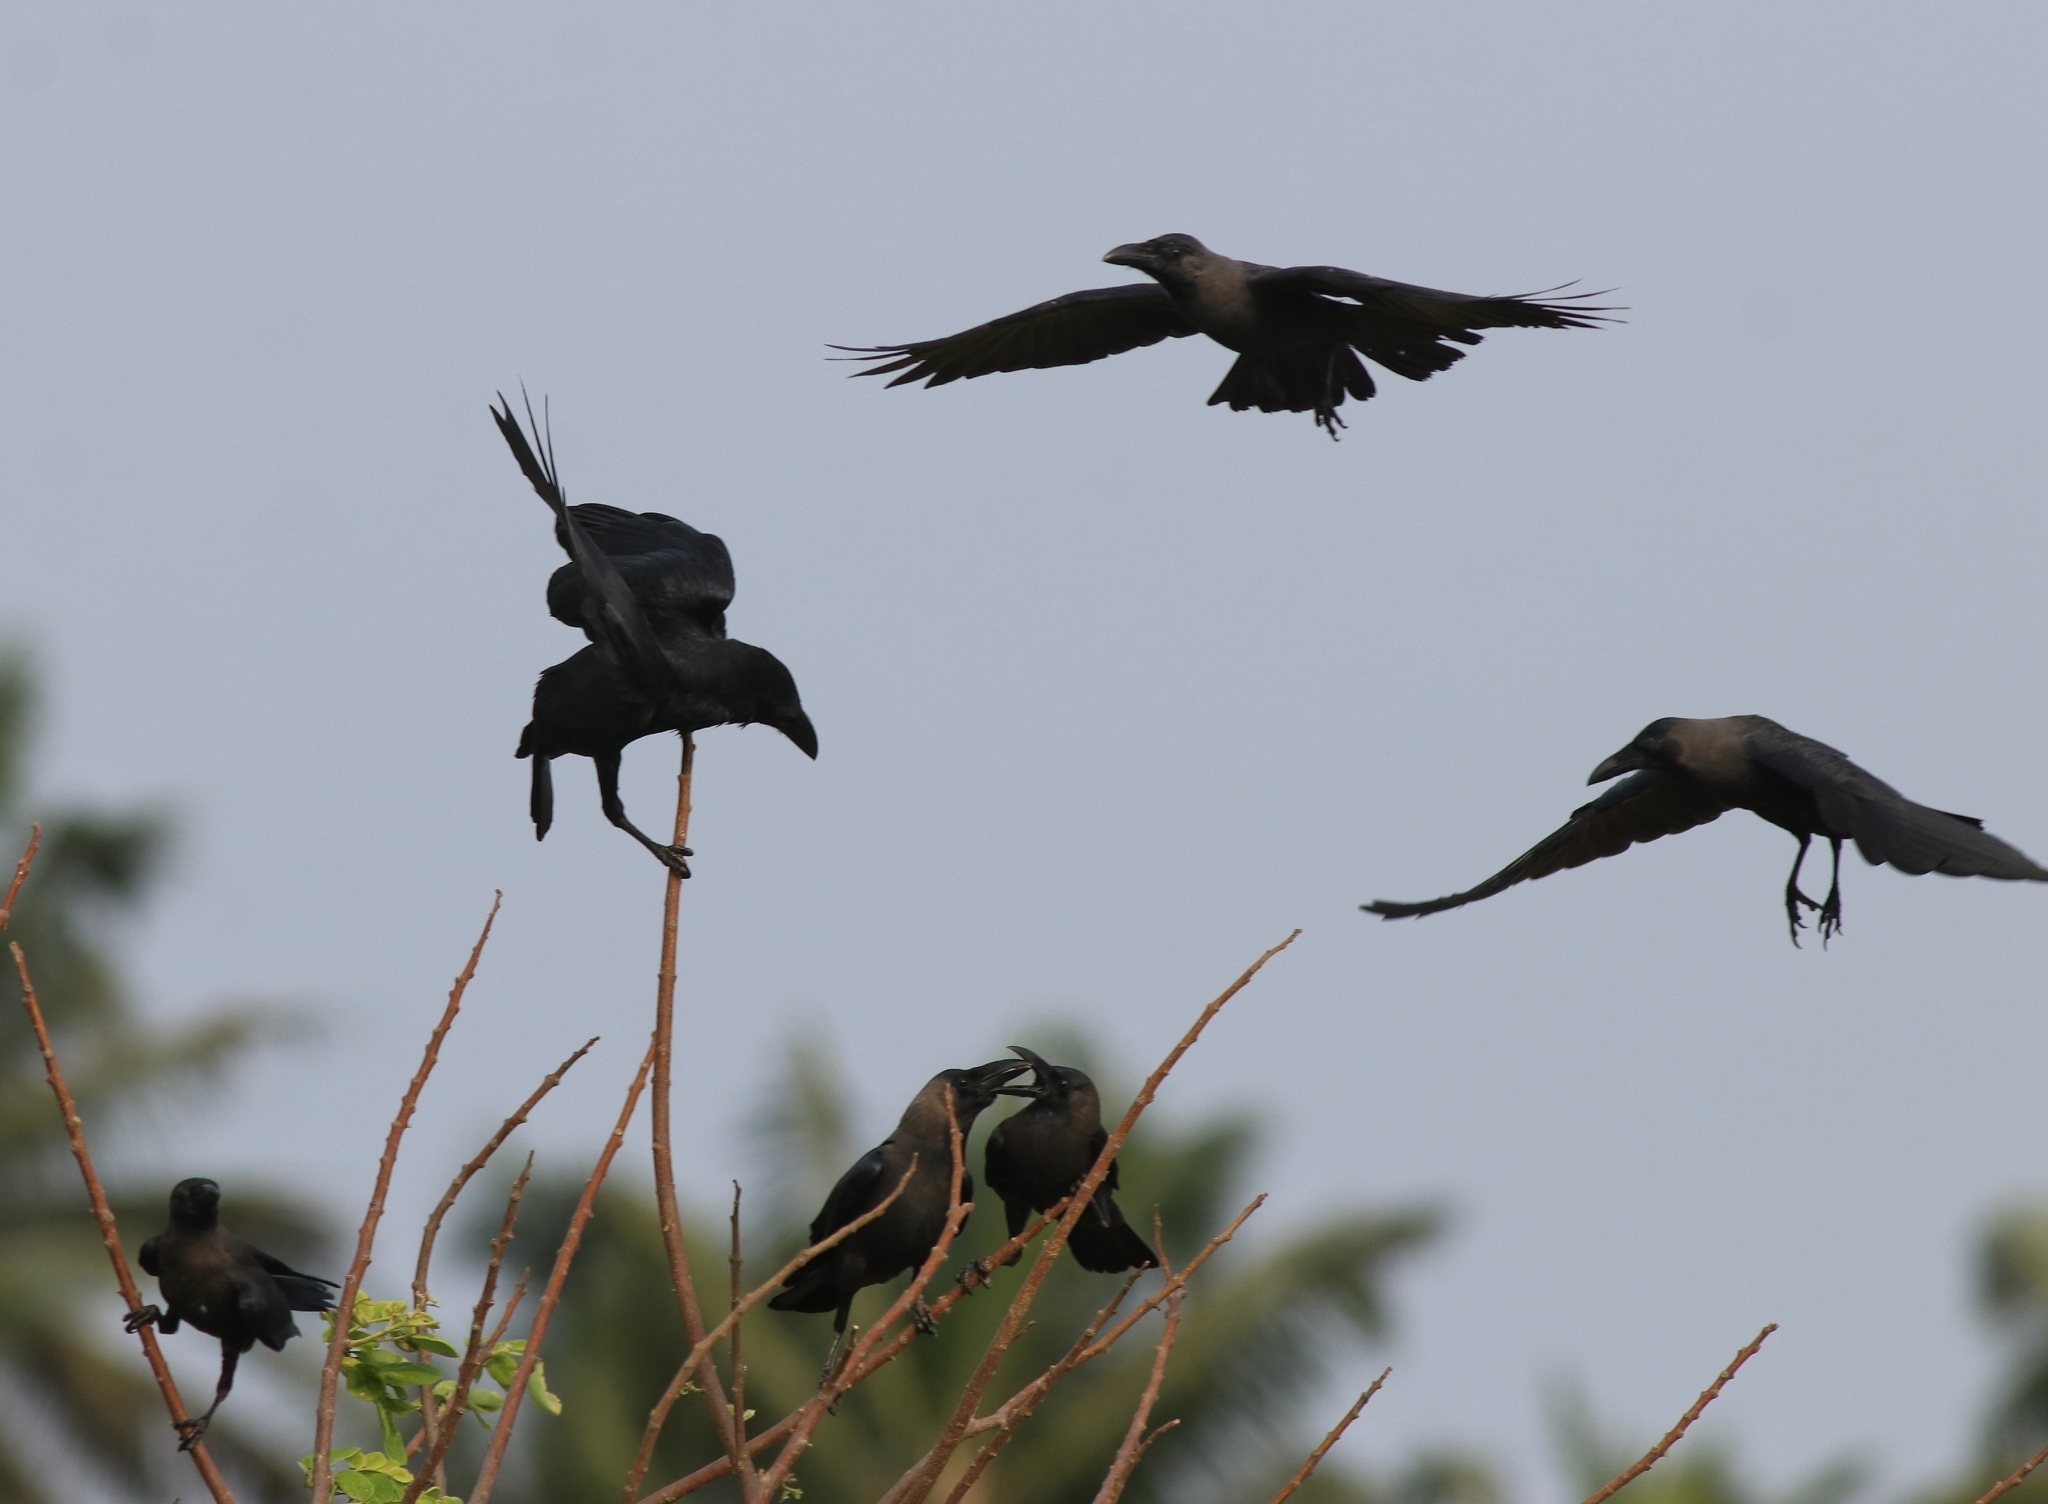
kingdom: Animalia
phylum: Chordata
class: Aves
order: Passeriformes
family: Corvidae
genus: Corvus
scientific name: Corvus splendens
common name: House crow
